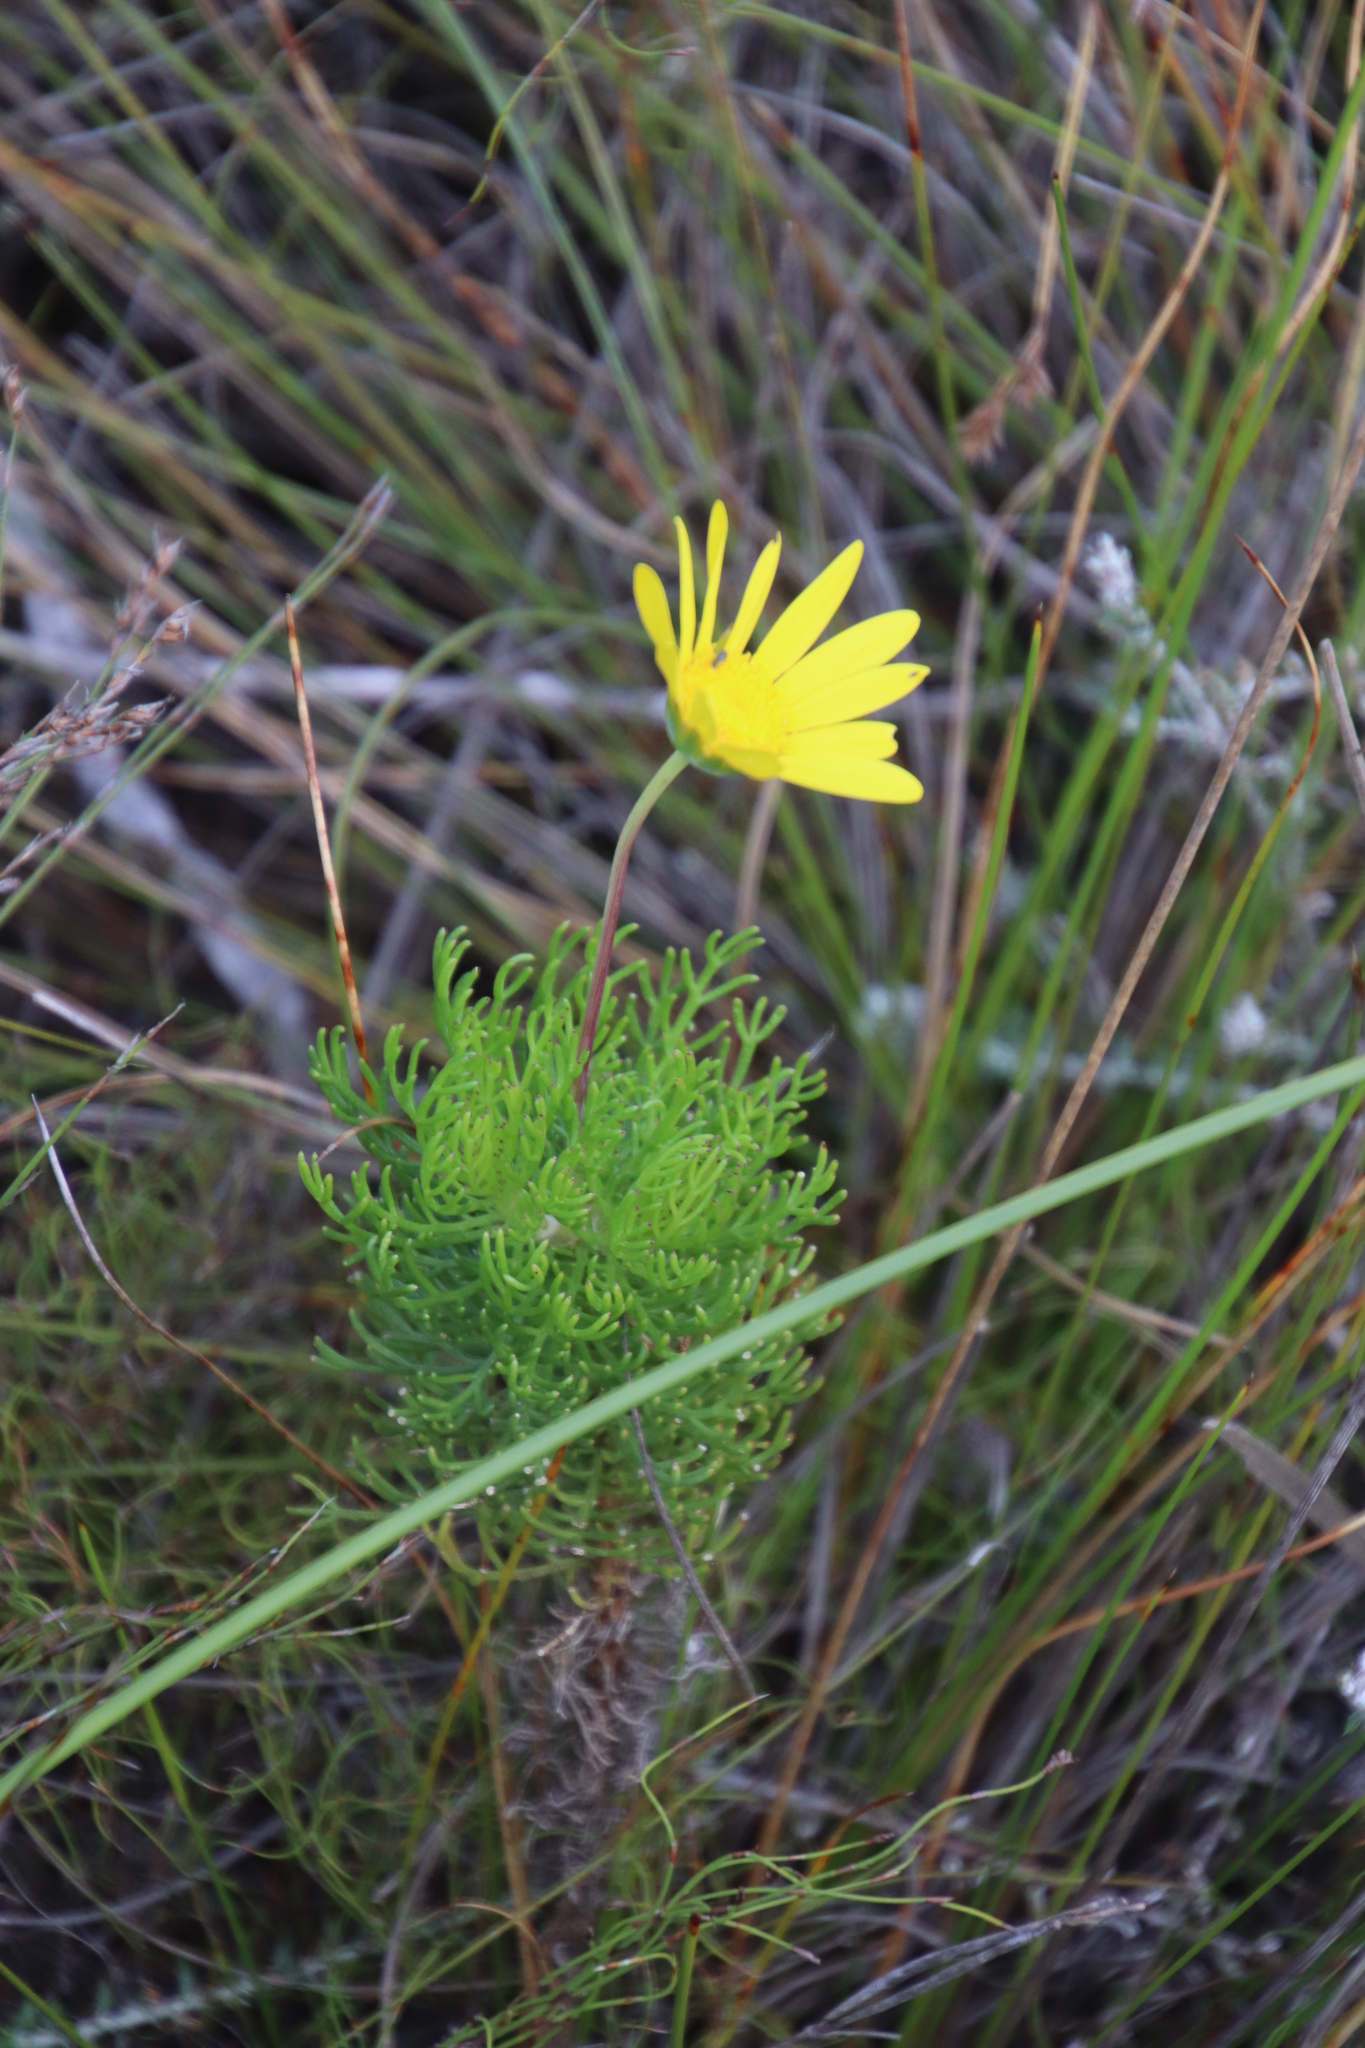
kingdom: Plantae
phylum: Tracheophyta
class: Magnoliopsida
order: Asterales
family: Asteraceae
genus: Euryops
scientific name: Euryops abrotanifolius
